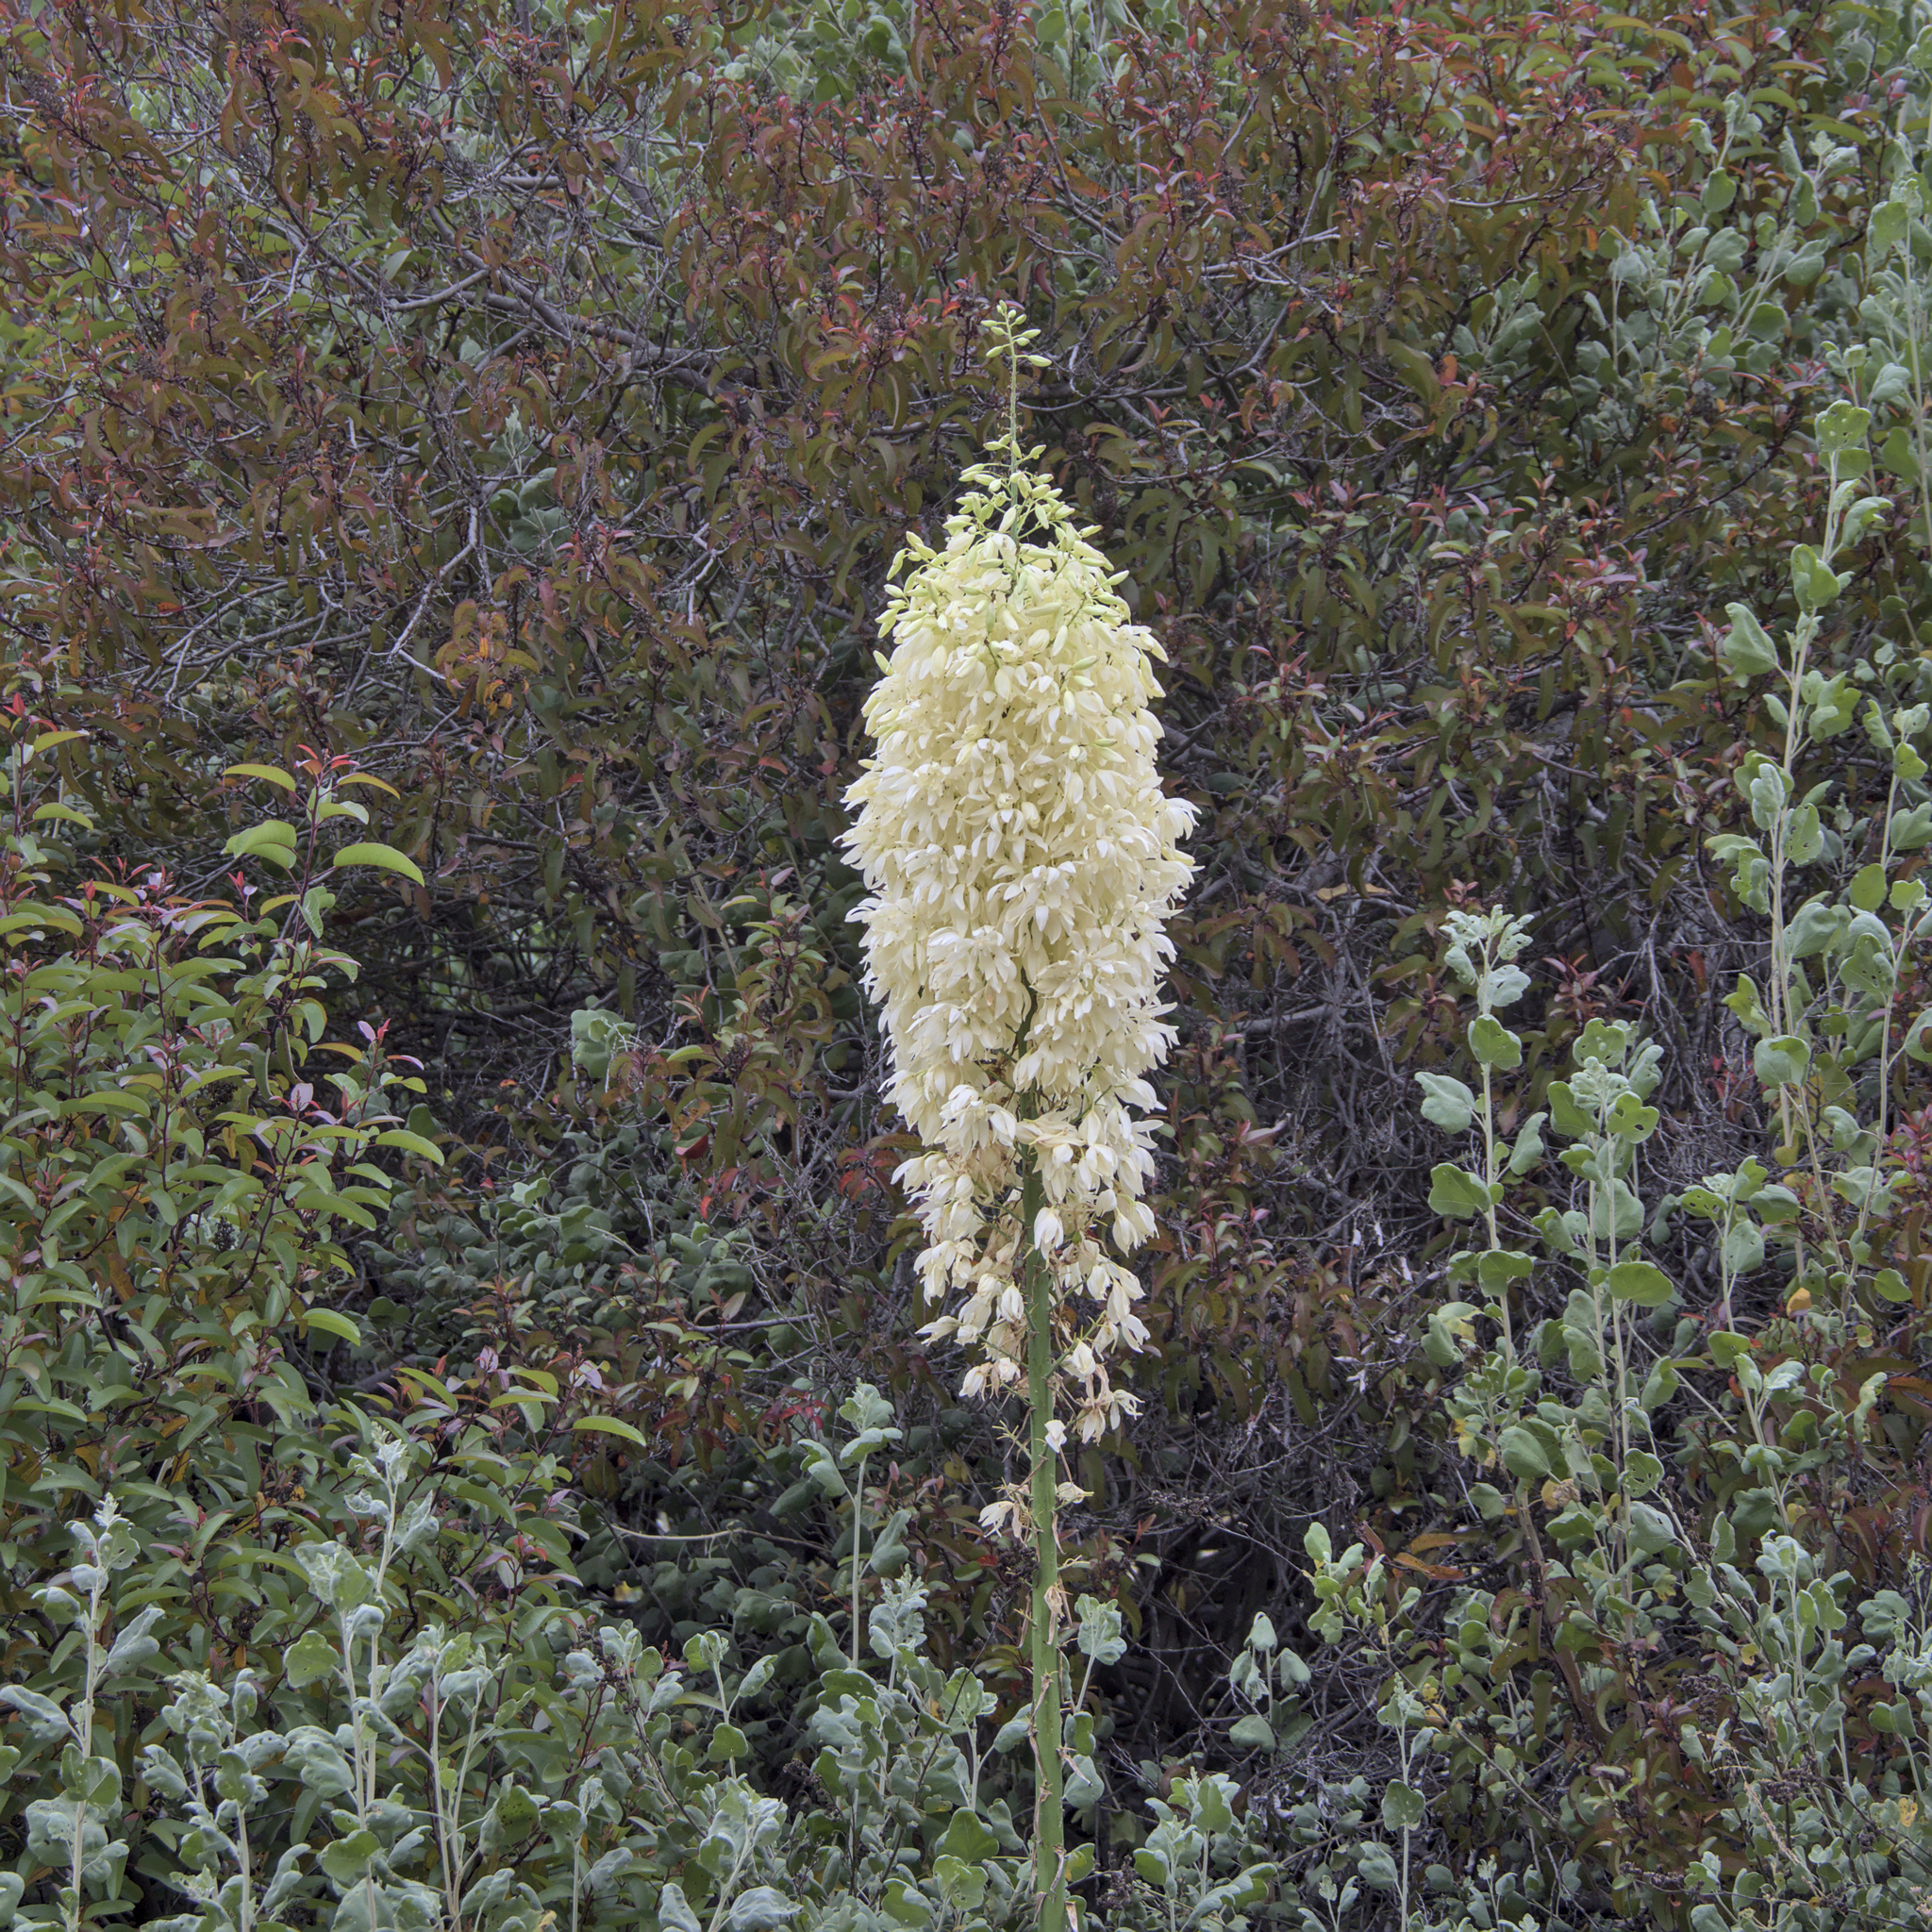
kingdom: Plantae
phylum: Tracheophyta
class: Liliopsida
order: Asparagales
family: Asparagaceae
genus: Hesperoyucca
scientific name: Hesperoyucca whipplei
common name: Our lord's-candle
